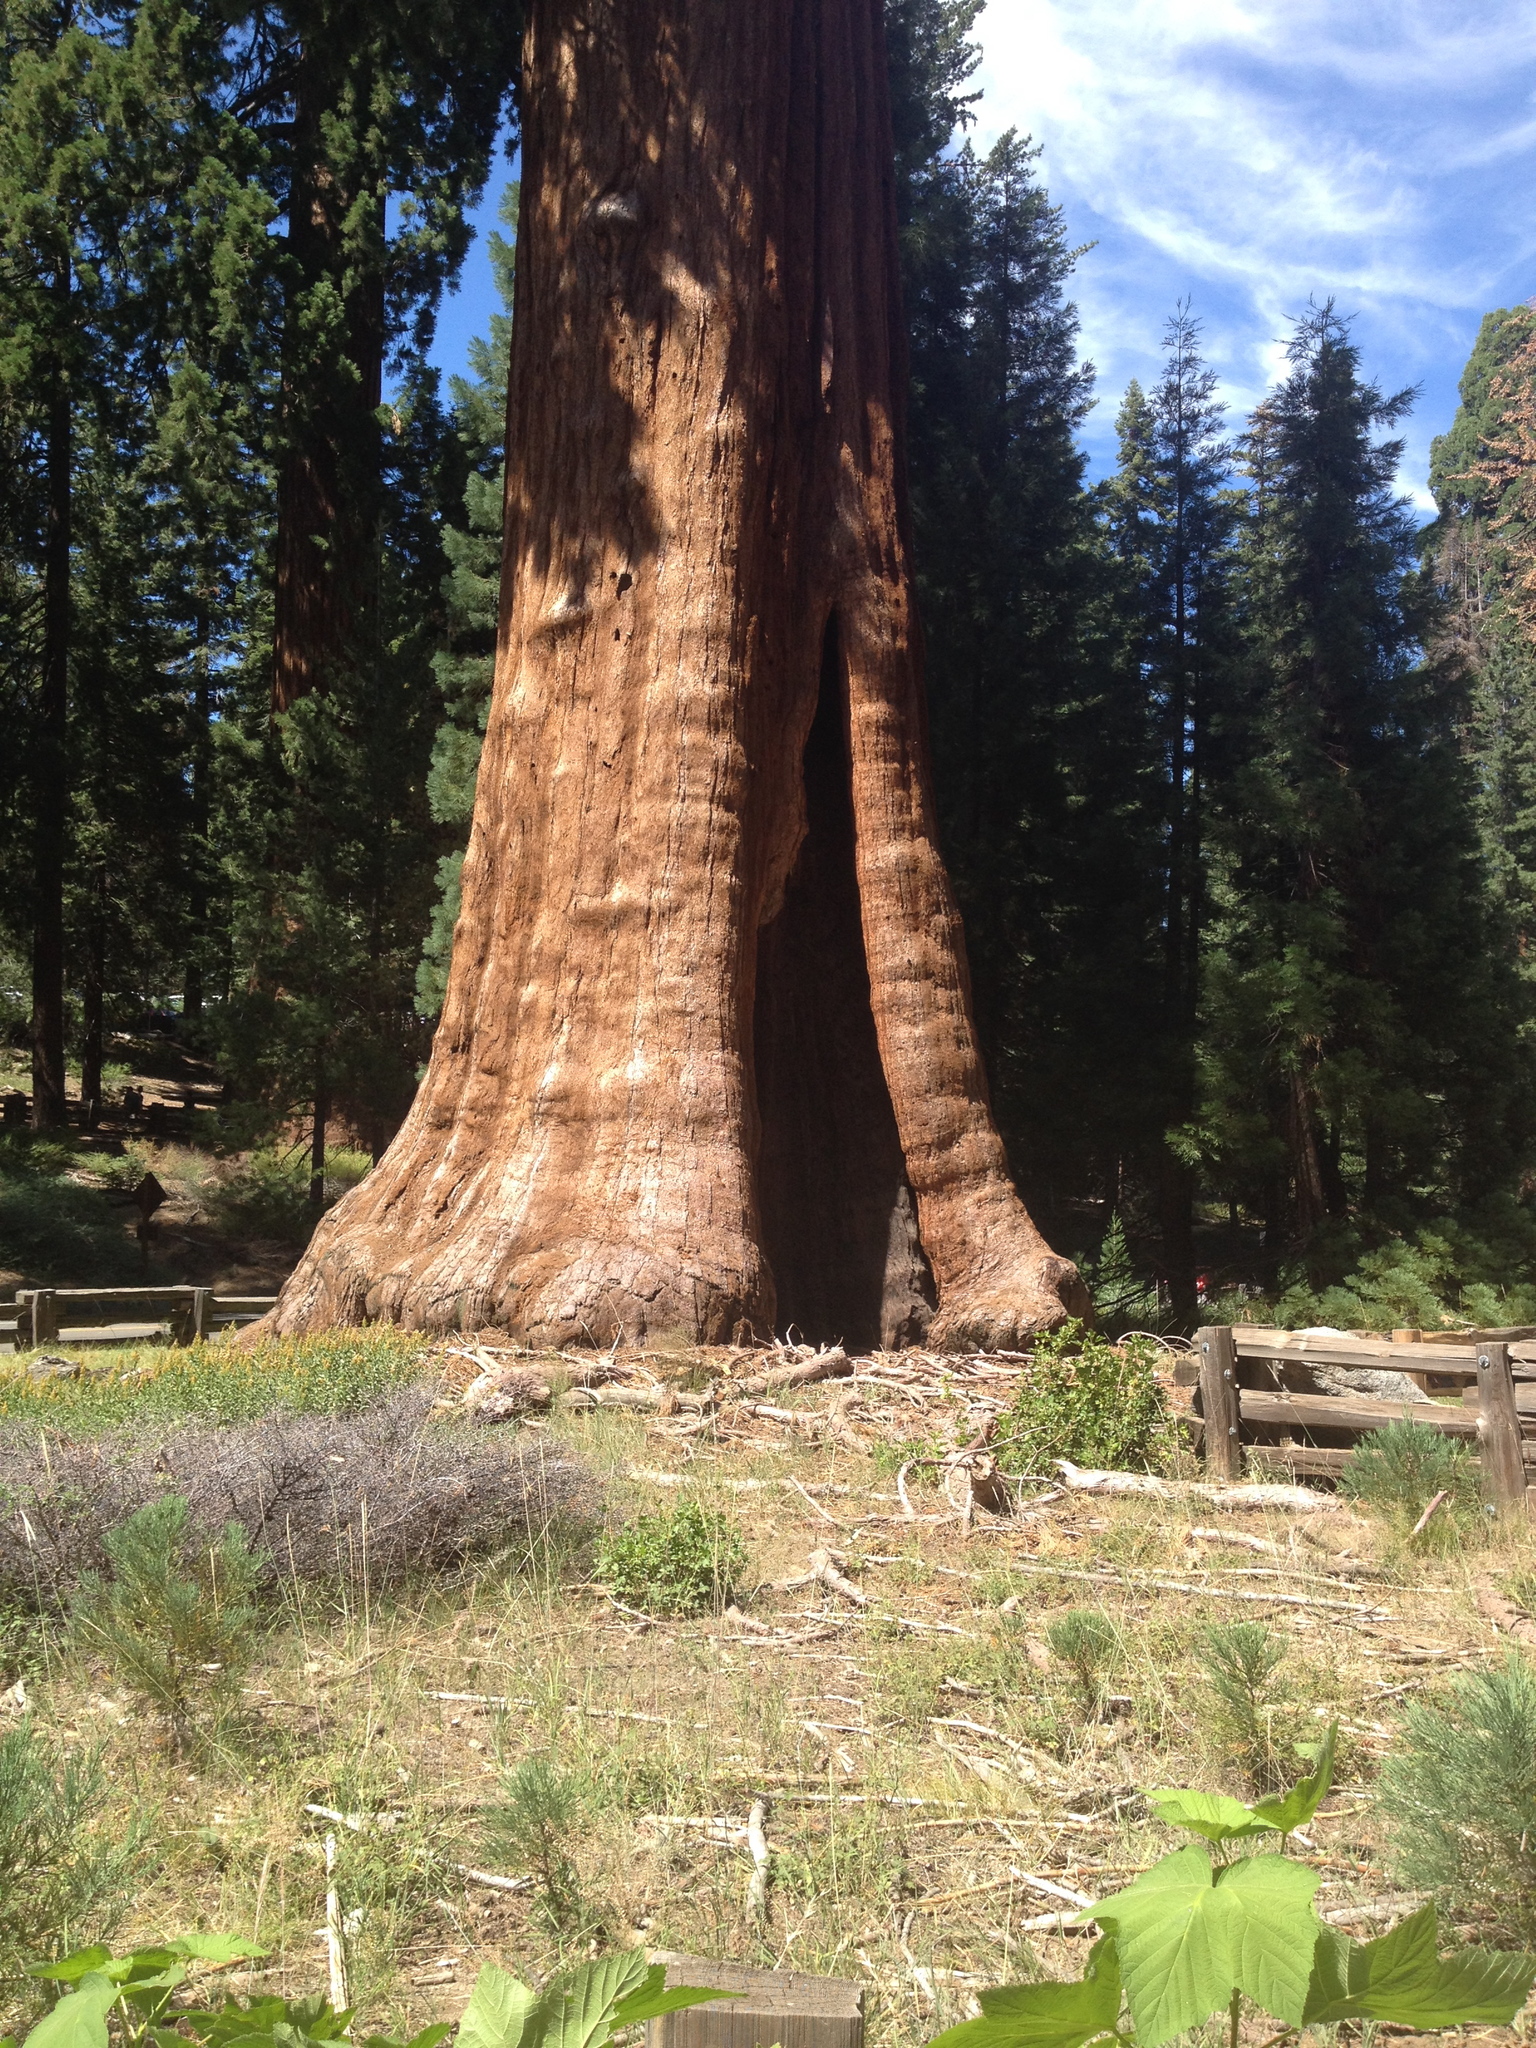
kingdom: Plantae
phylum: Tracheophyta
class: Pinopsida
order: Pinales
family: Cupressaceae
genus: Sequoiadendron
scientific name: Sequoiadendron giganteum
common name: Wellingtonia
